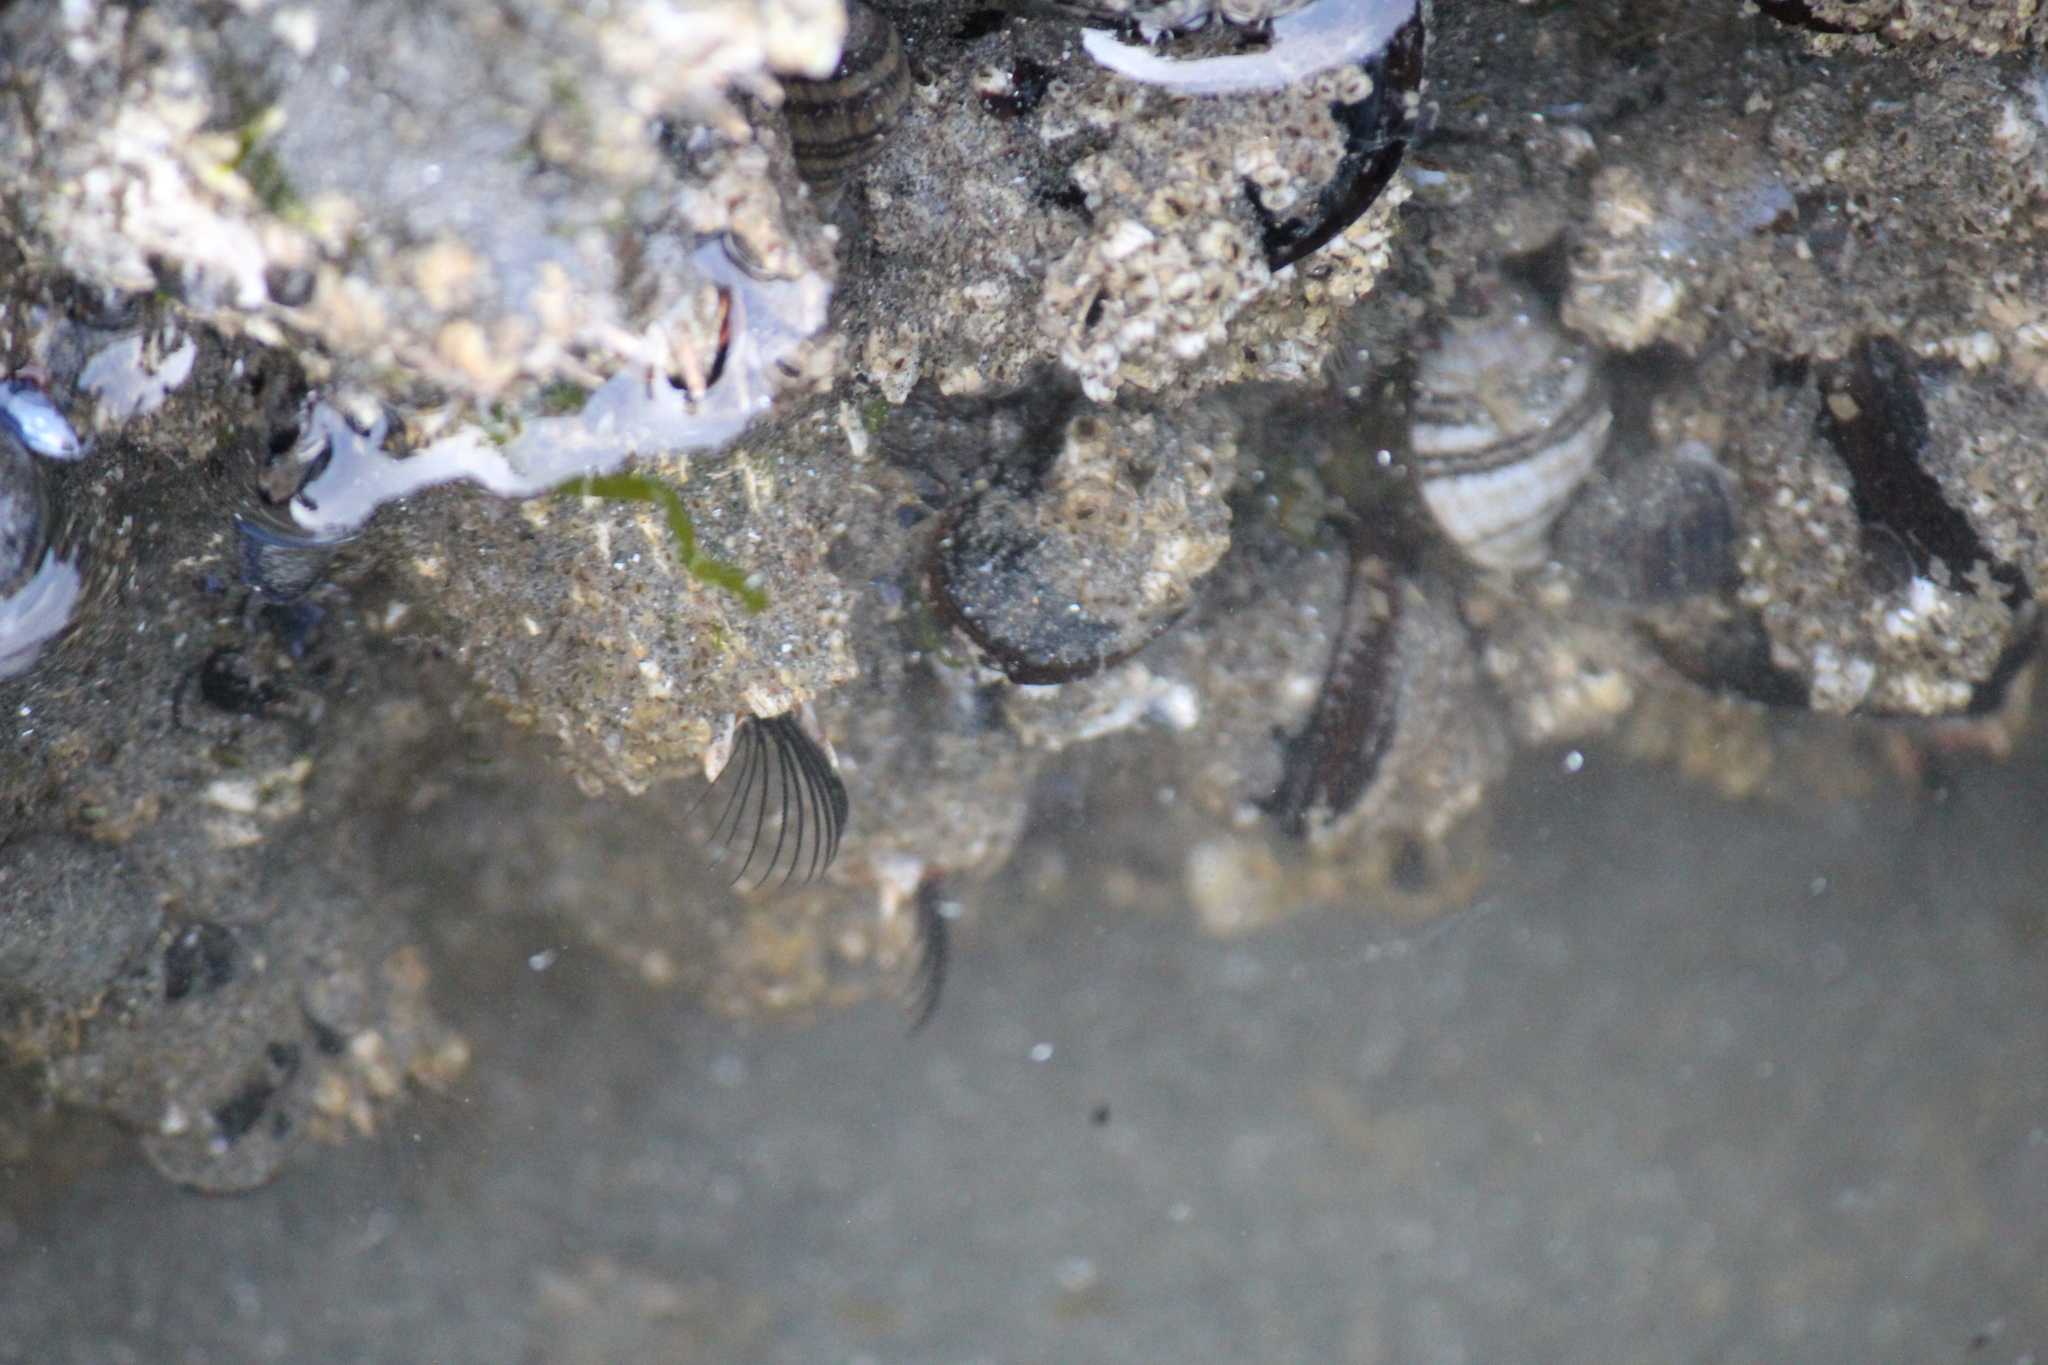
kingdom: Animalia
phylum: Arthropoda
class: Maxillopoda
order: Sessilia
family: Archaeobalanidae
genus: Semibalanus
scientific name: Semibalanus cariosus
